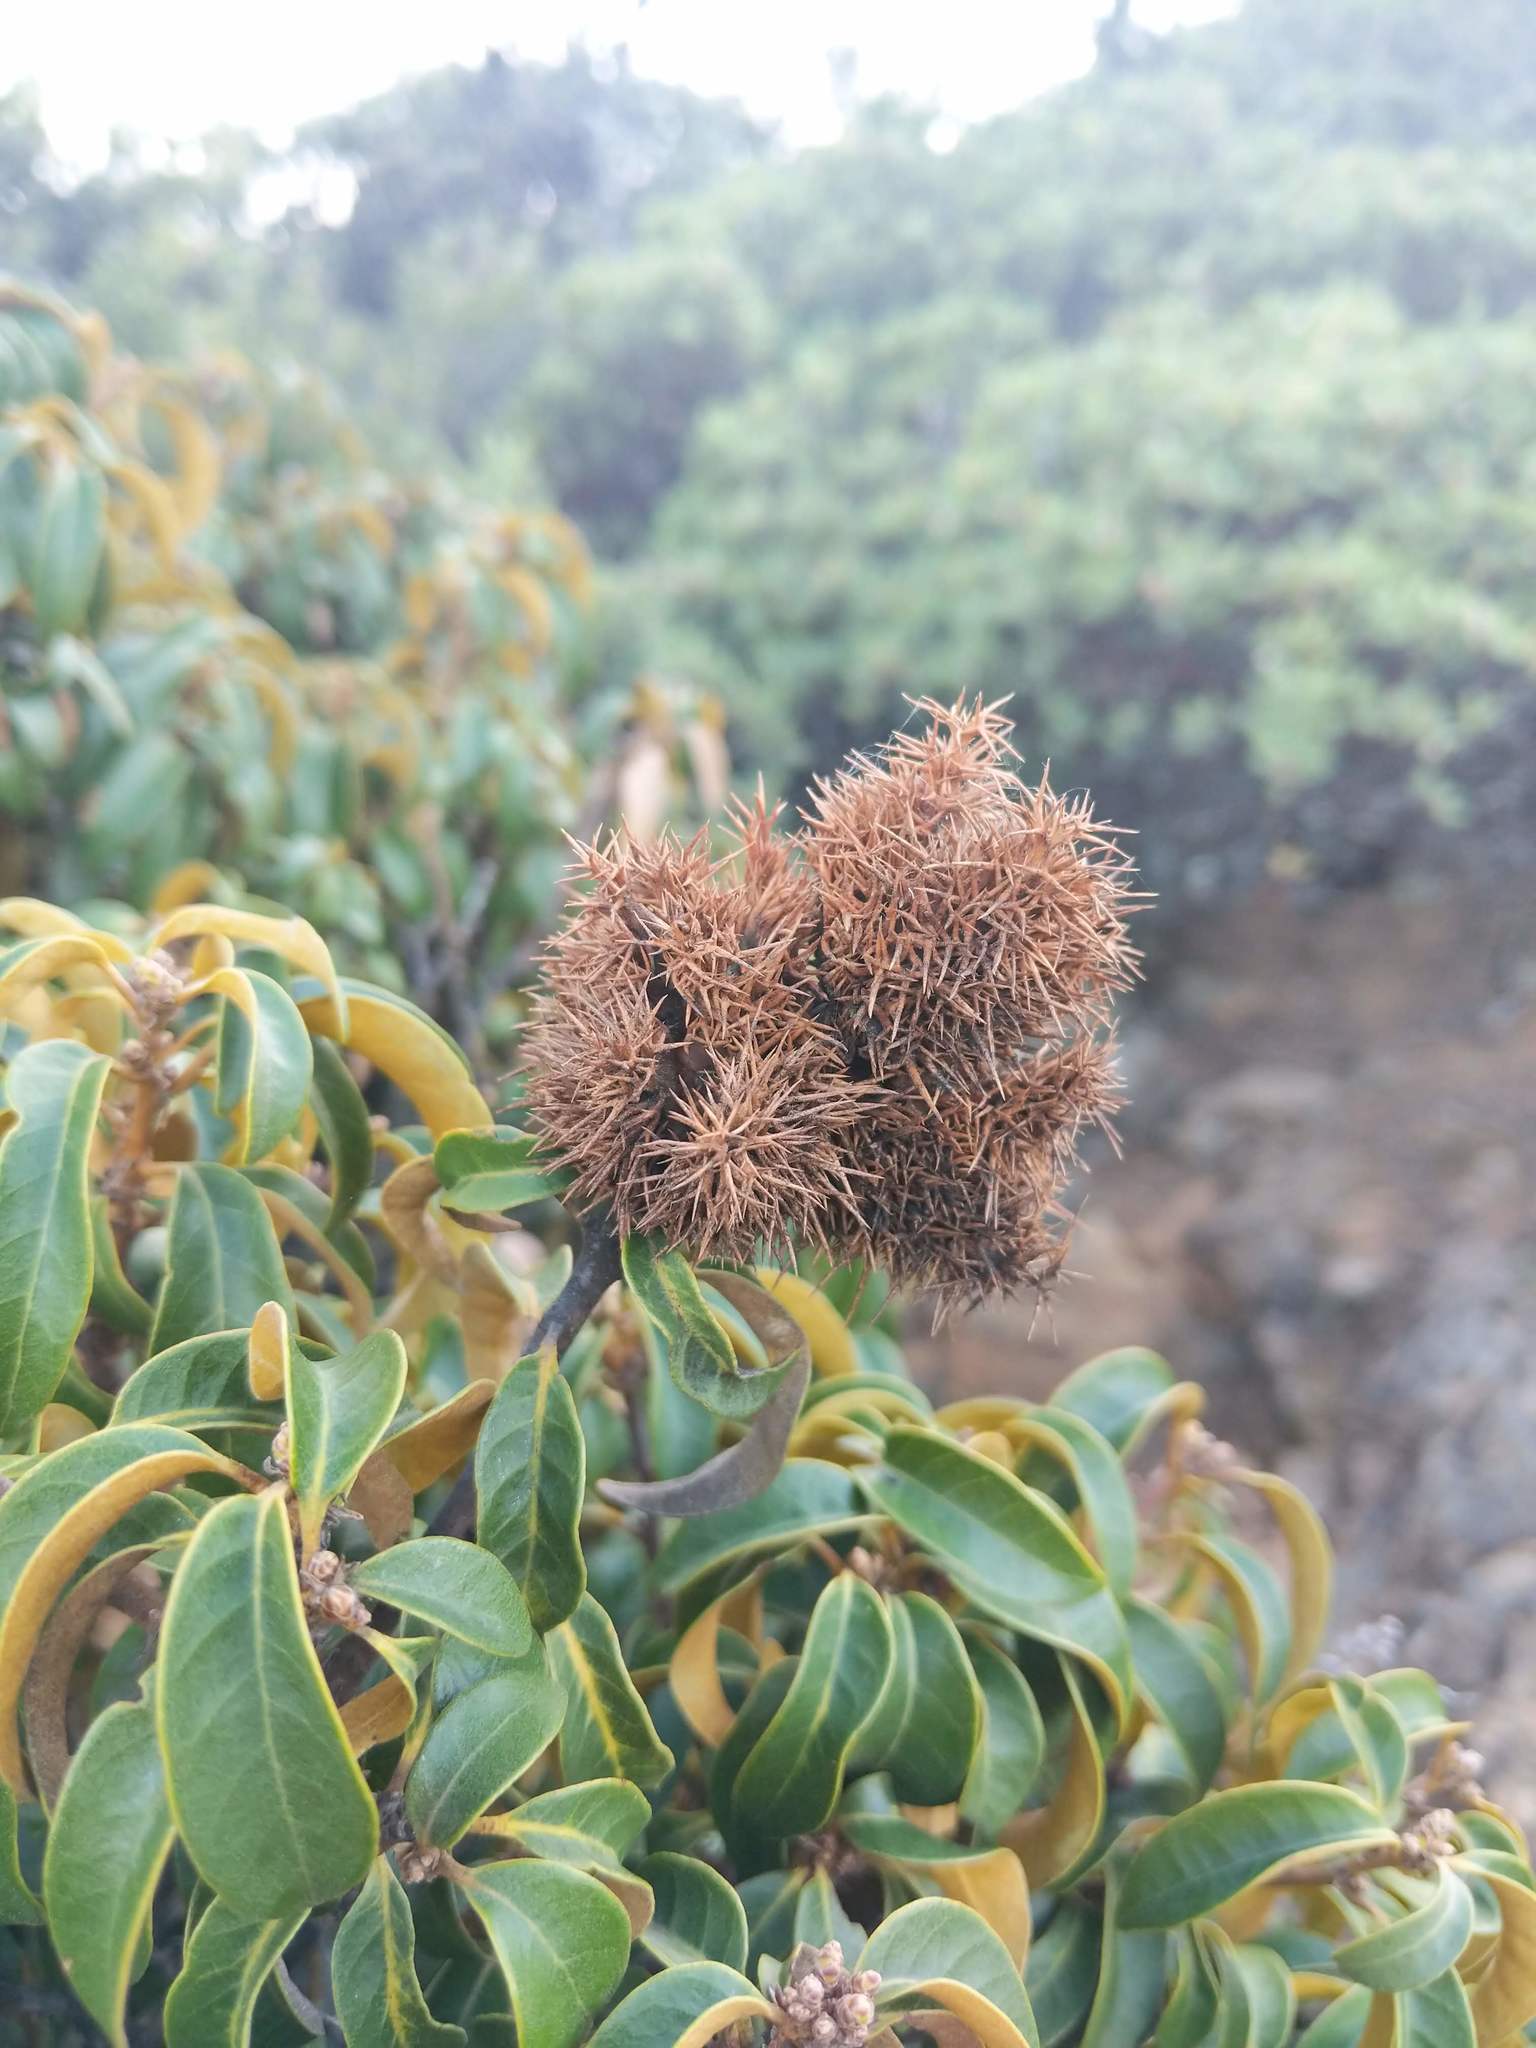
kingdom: Plantae
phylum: Tracheophyta
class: Magnoliopsida
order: Fagales
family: Fagaceae
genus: Chrysolepis
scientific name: Chrysolepis chrysophylla
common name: Giant chinquapin
